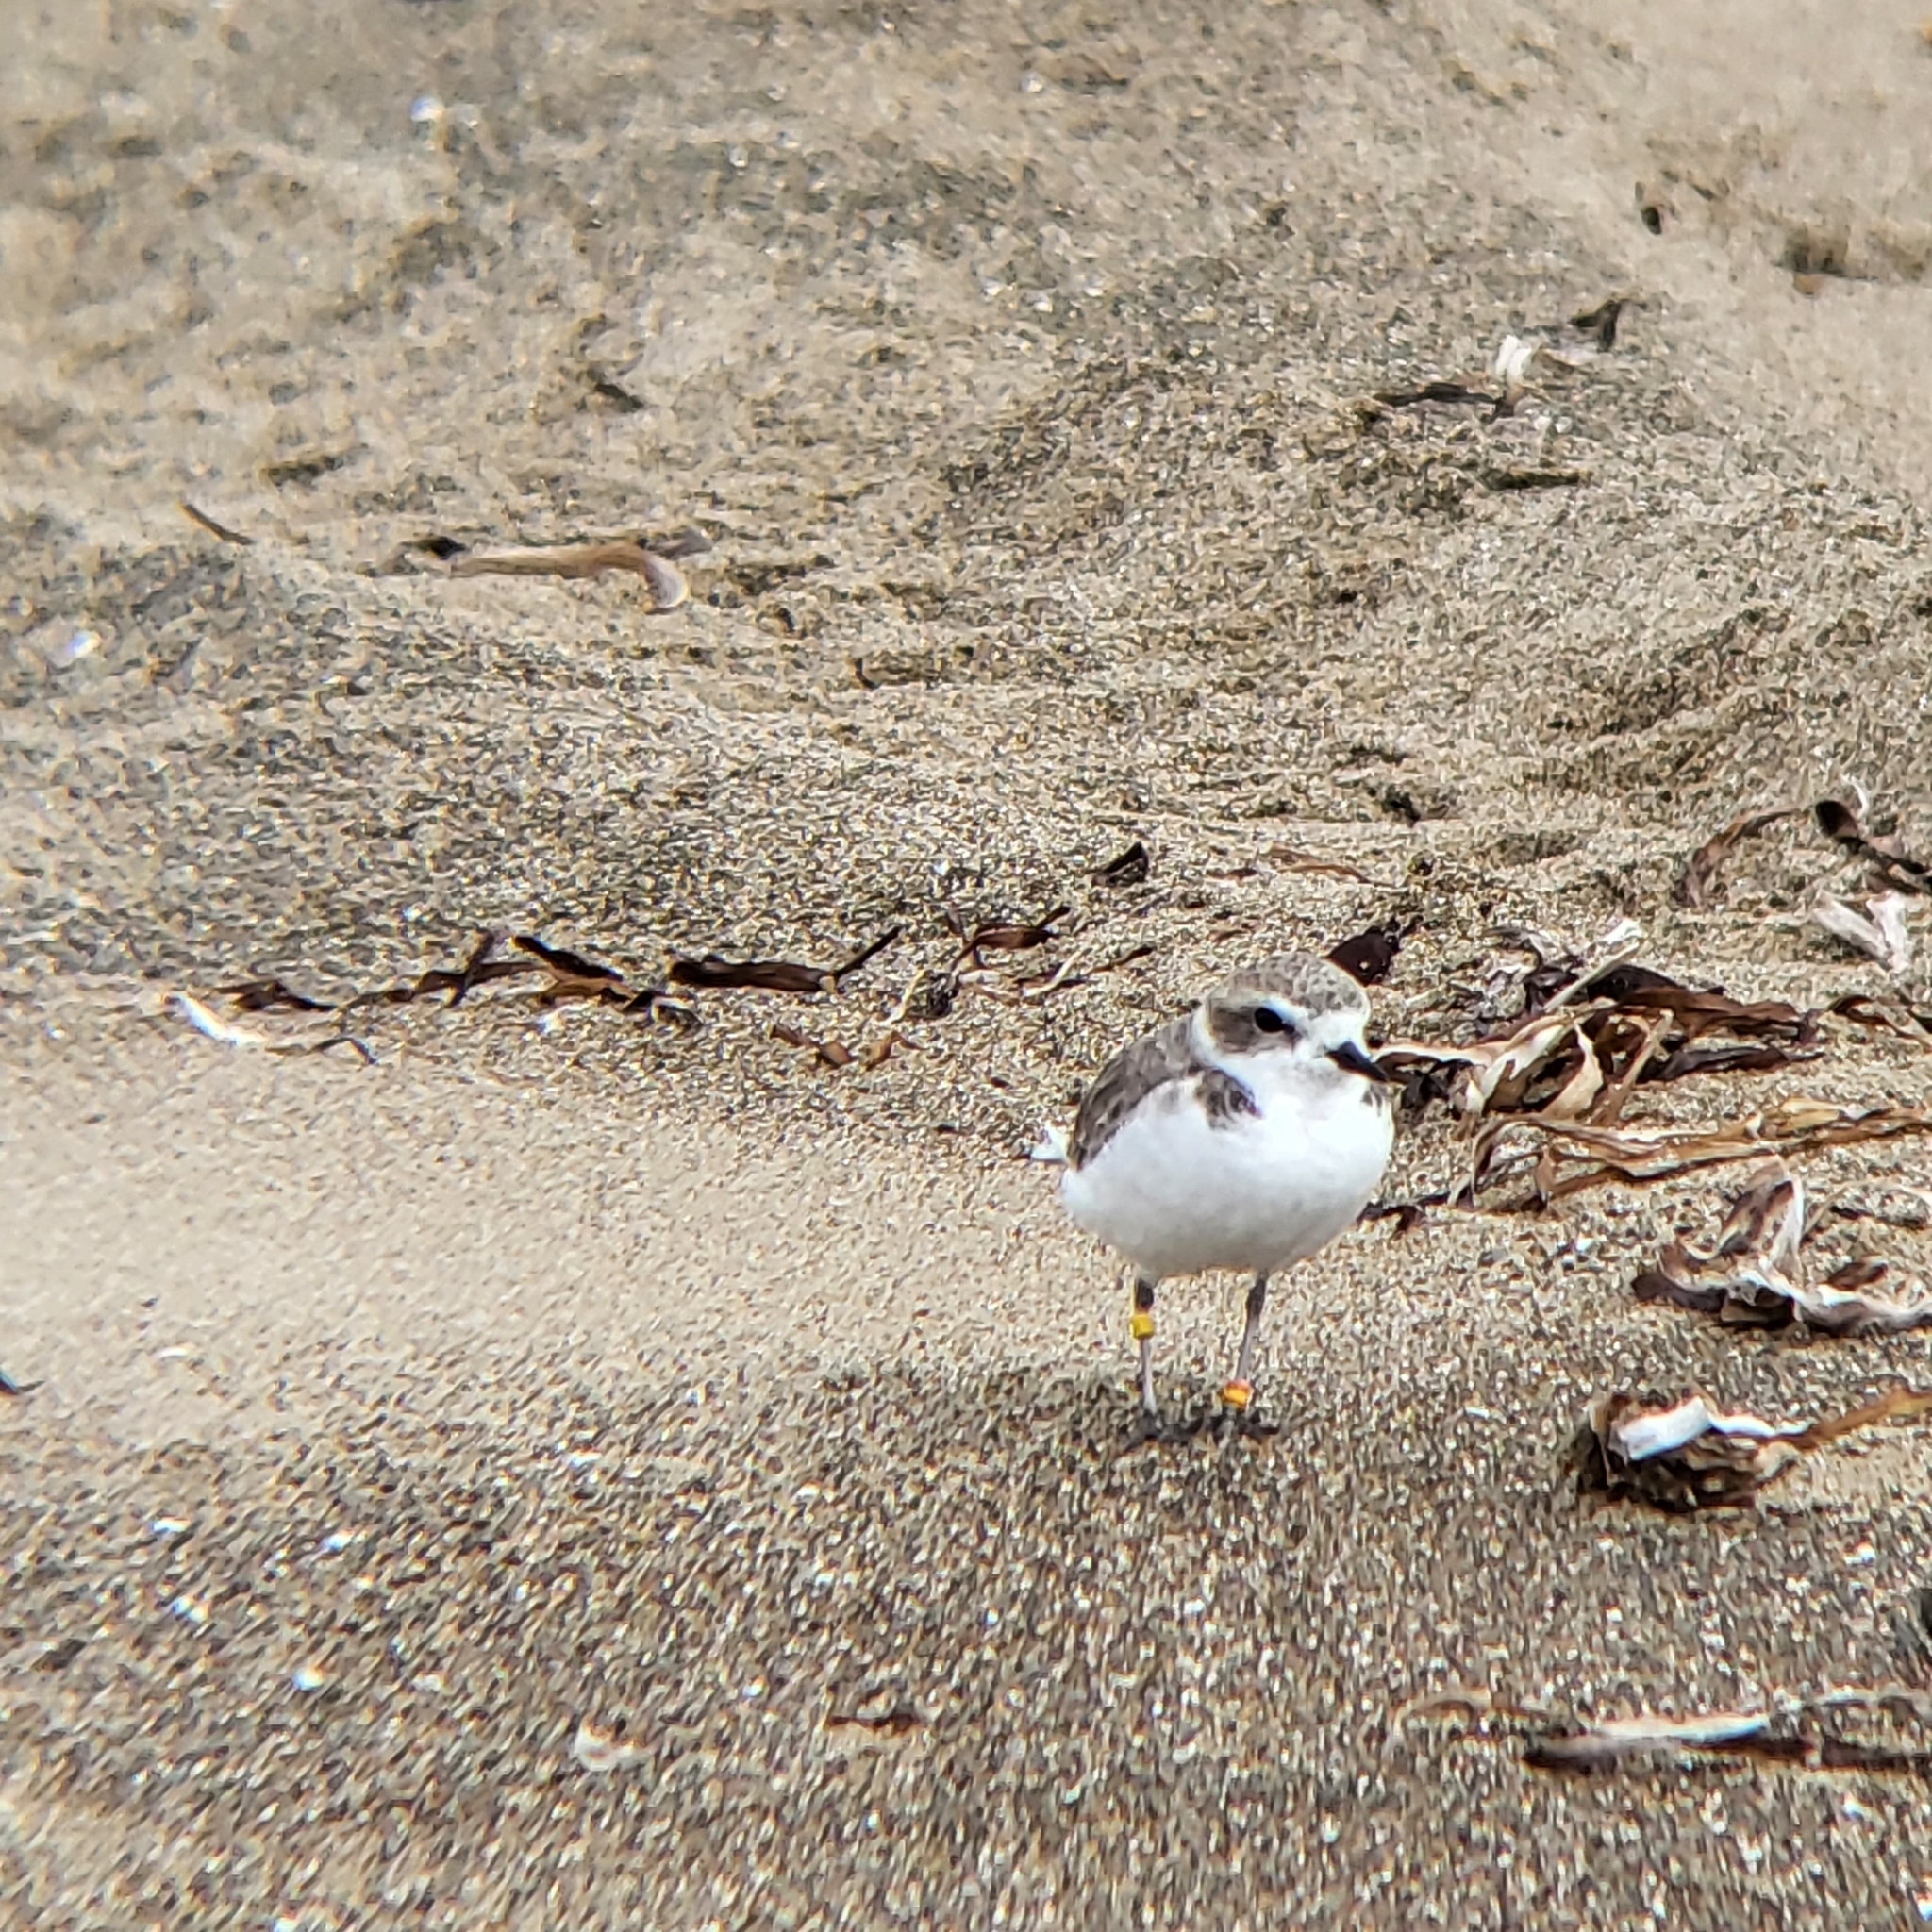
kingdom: Animalia
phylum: Chordata
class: Aves
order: Charadriiformes
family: Charadriidae
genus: Anarhynchus
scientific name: Anarhynchus
